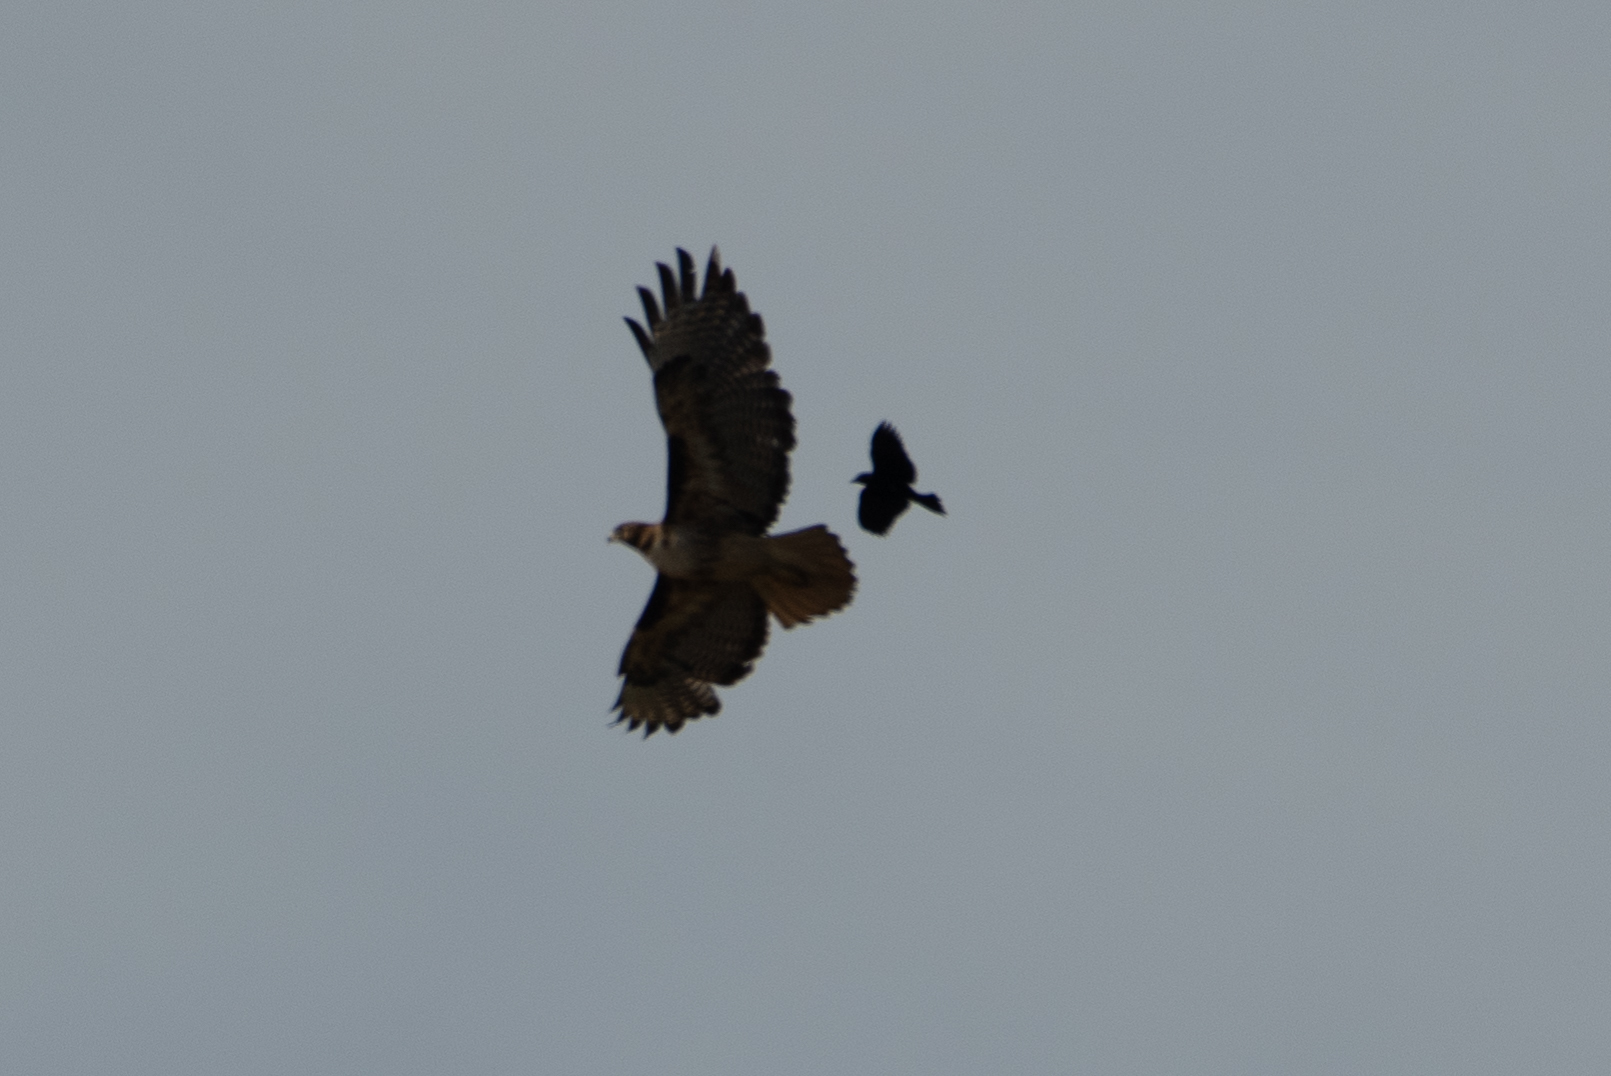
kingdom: Animalia
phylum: Chordata
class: Aves
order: Accipitriformes
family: Accipitridae
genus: Buteo
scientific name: Buteo jamaicensis
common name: Red-tailed hawk
